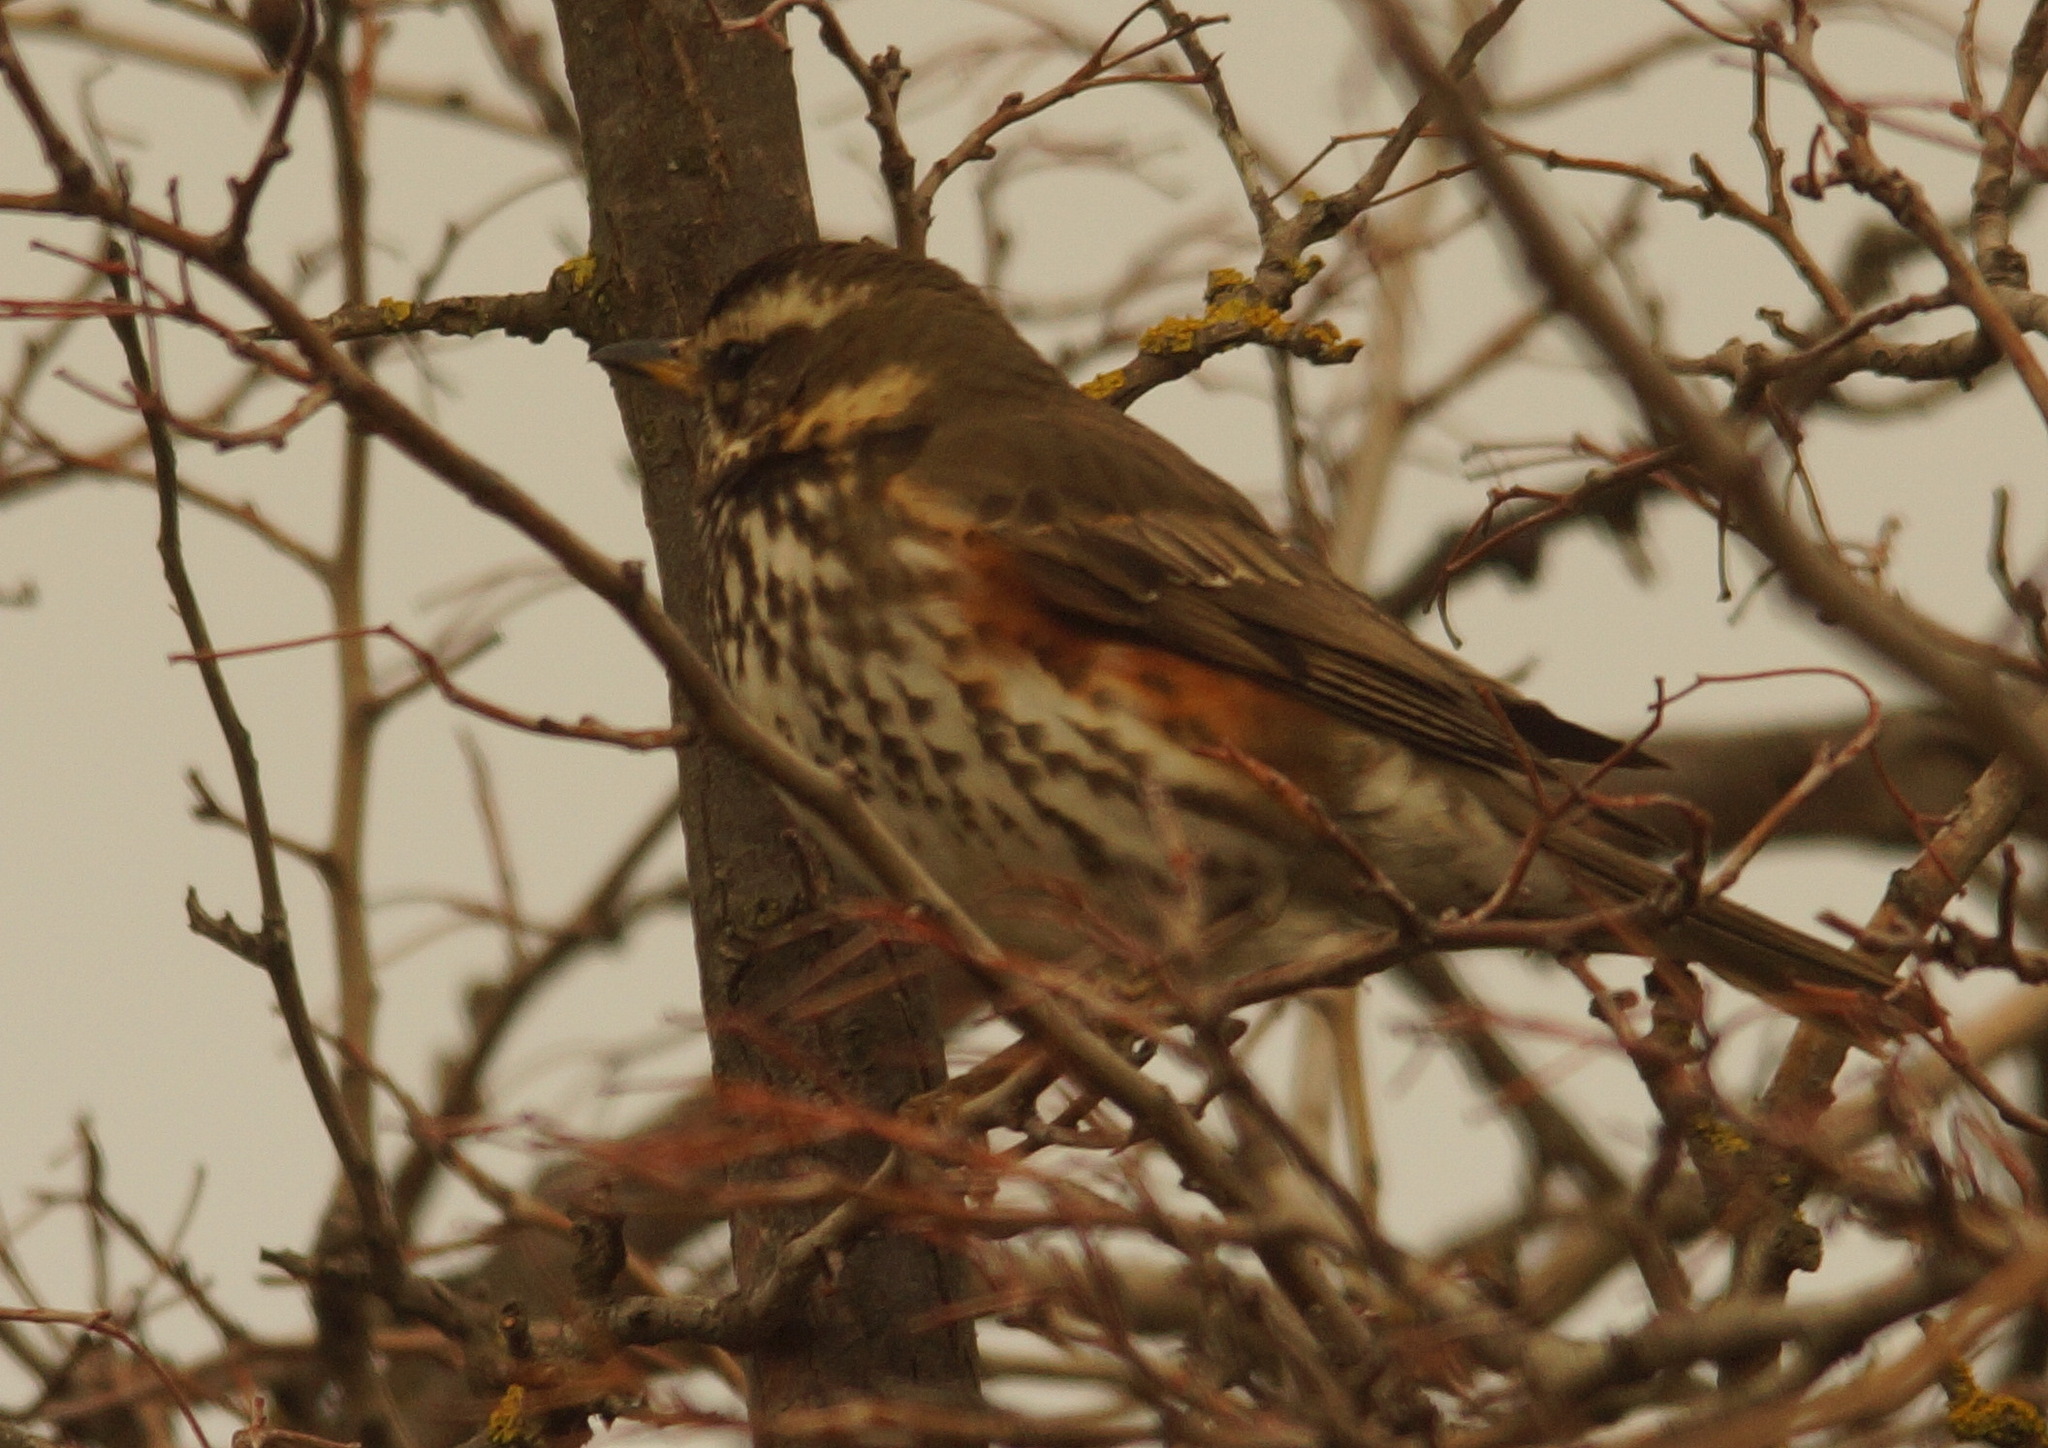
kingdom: Animalia
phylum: Chordata
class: Aves
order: Passeriformes
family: Turdidae
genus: Turdus
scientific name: Turdus iliacus
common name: Redwing
